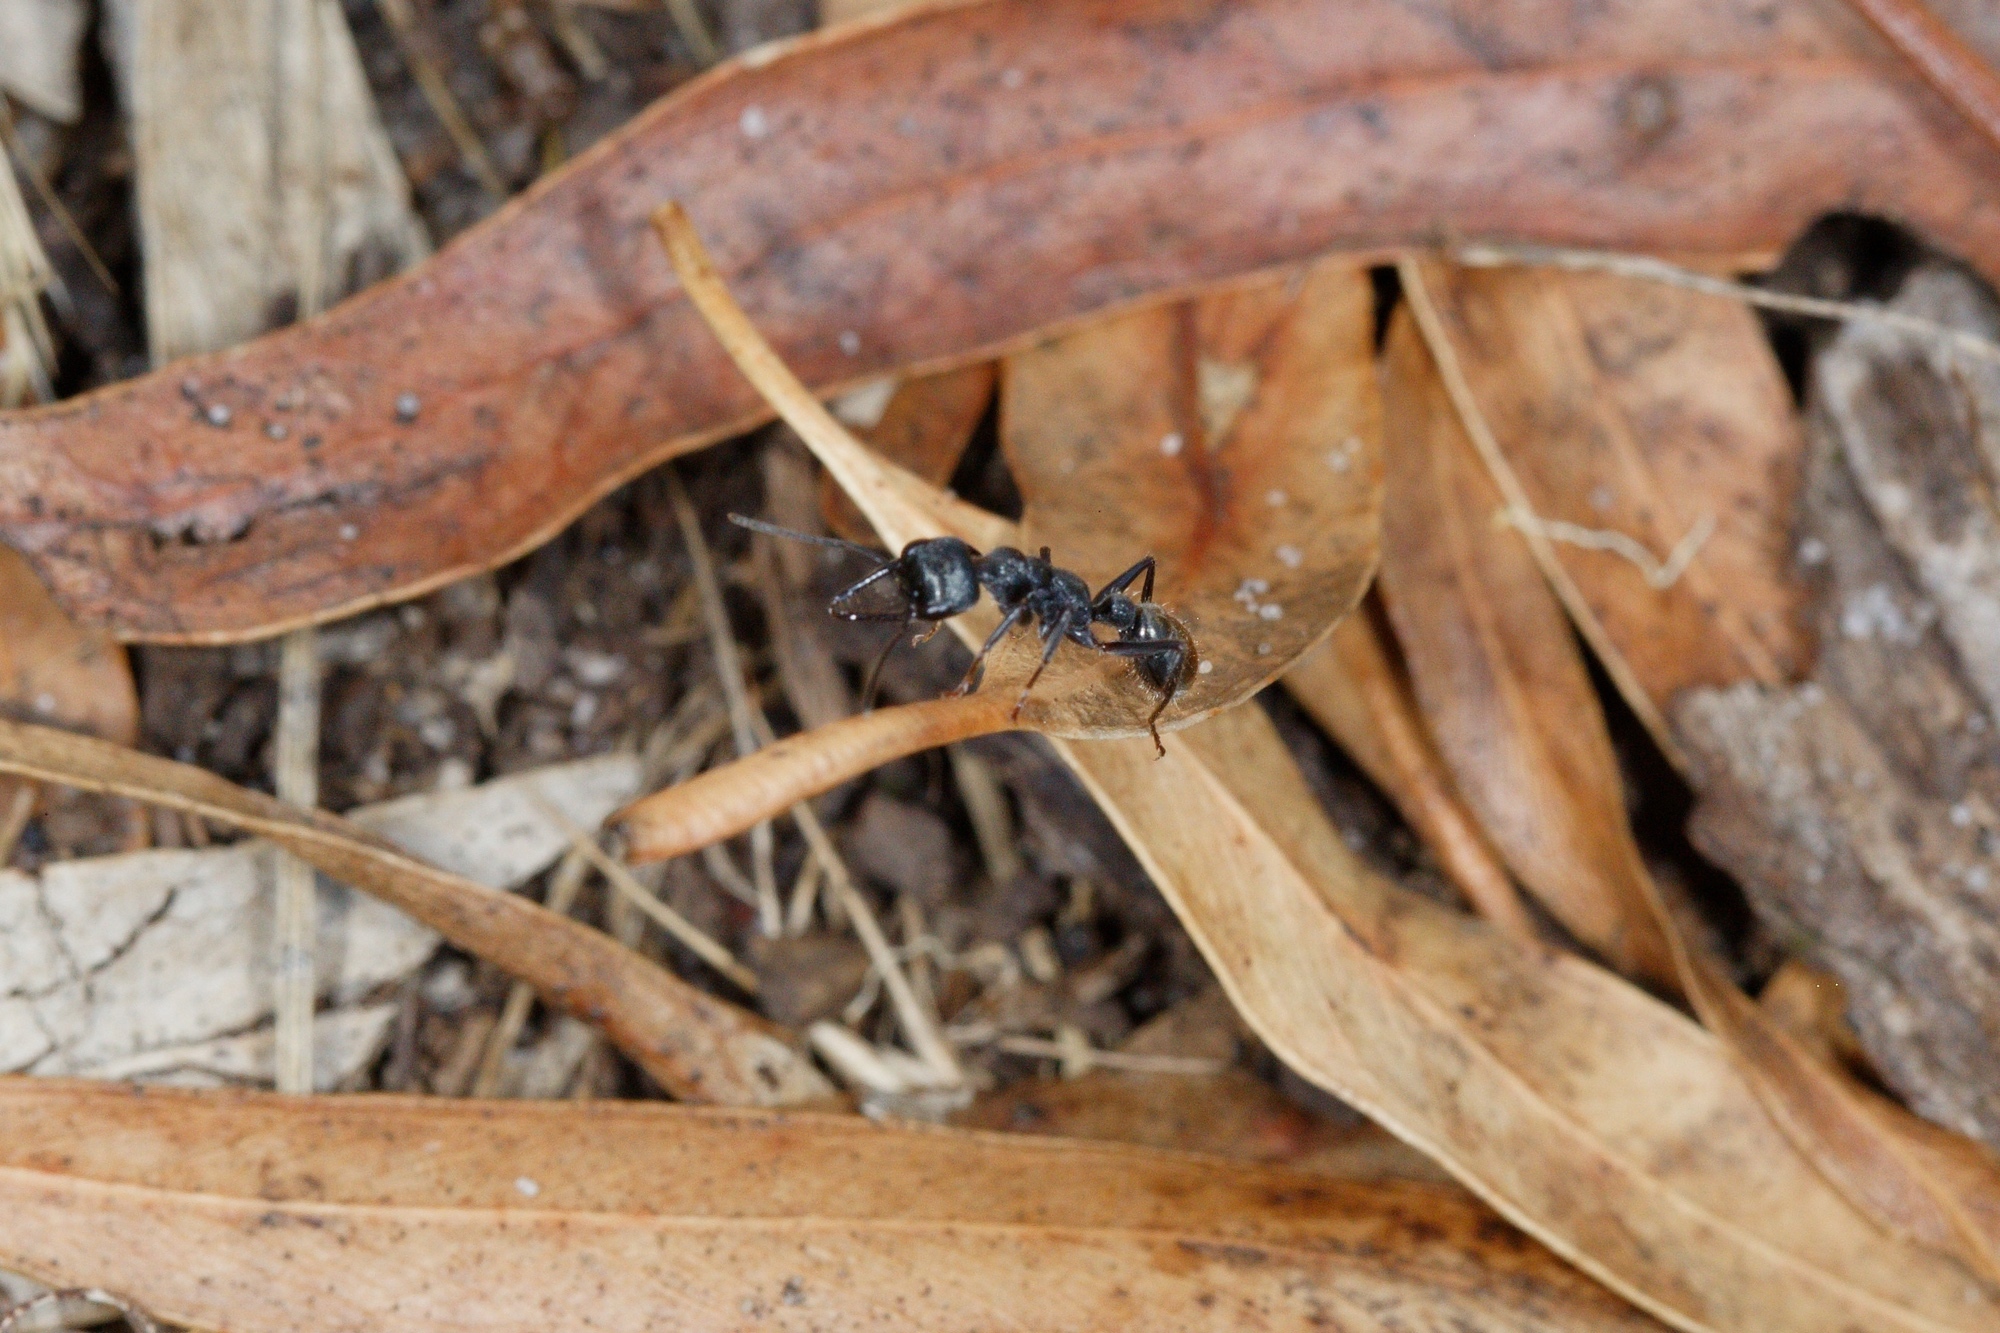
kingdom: Animalia
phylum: Arthropoda
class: Insecta
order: Hymenoptera
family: Formicidae
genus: Myrmecia
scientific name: Myrmecia piliventris
